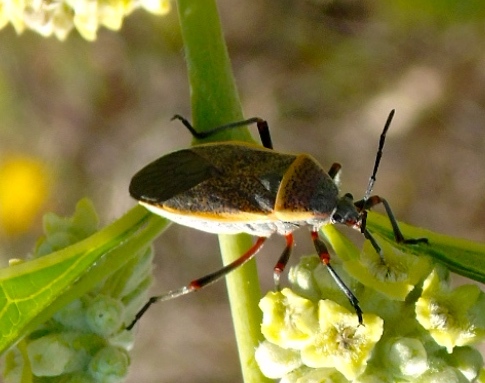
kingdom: Animalia
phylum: Arthropoda
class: Insecta
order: Hemiptera
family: Largidae
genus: Largus
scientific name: Largus
